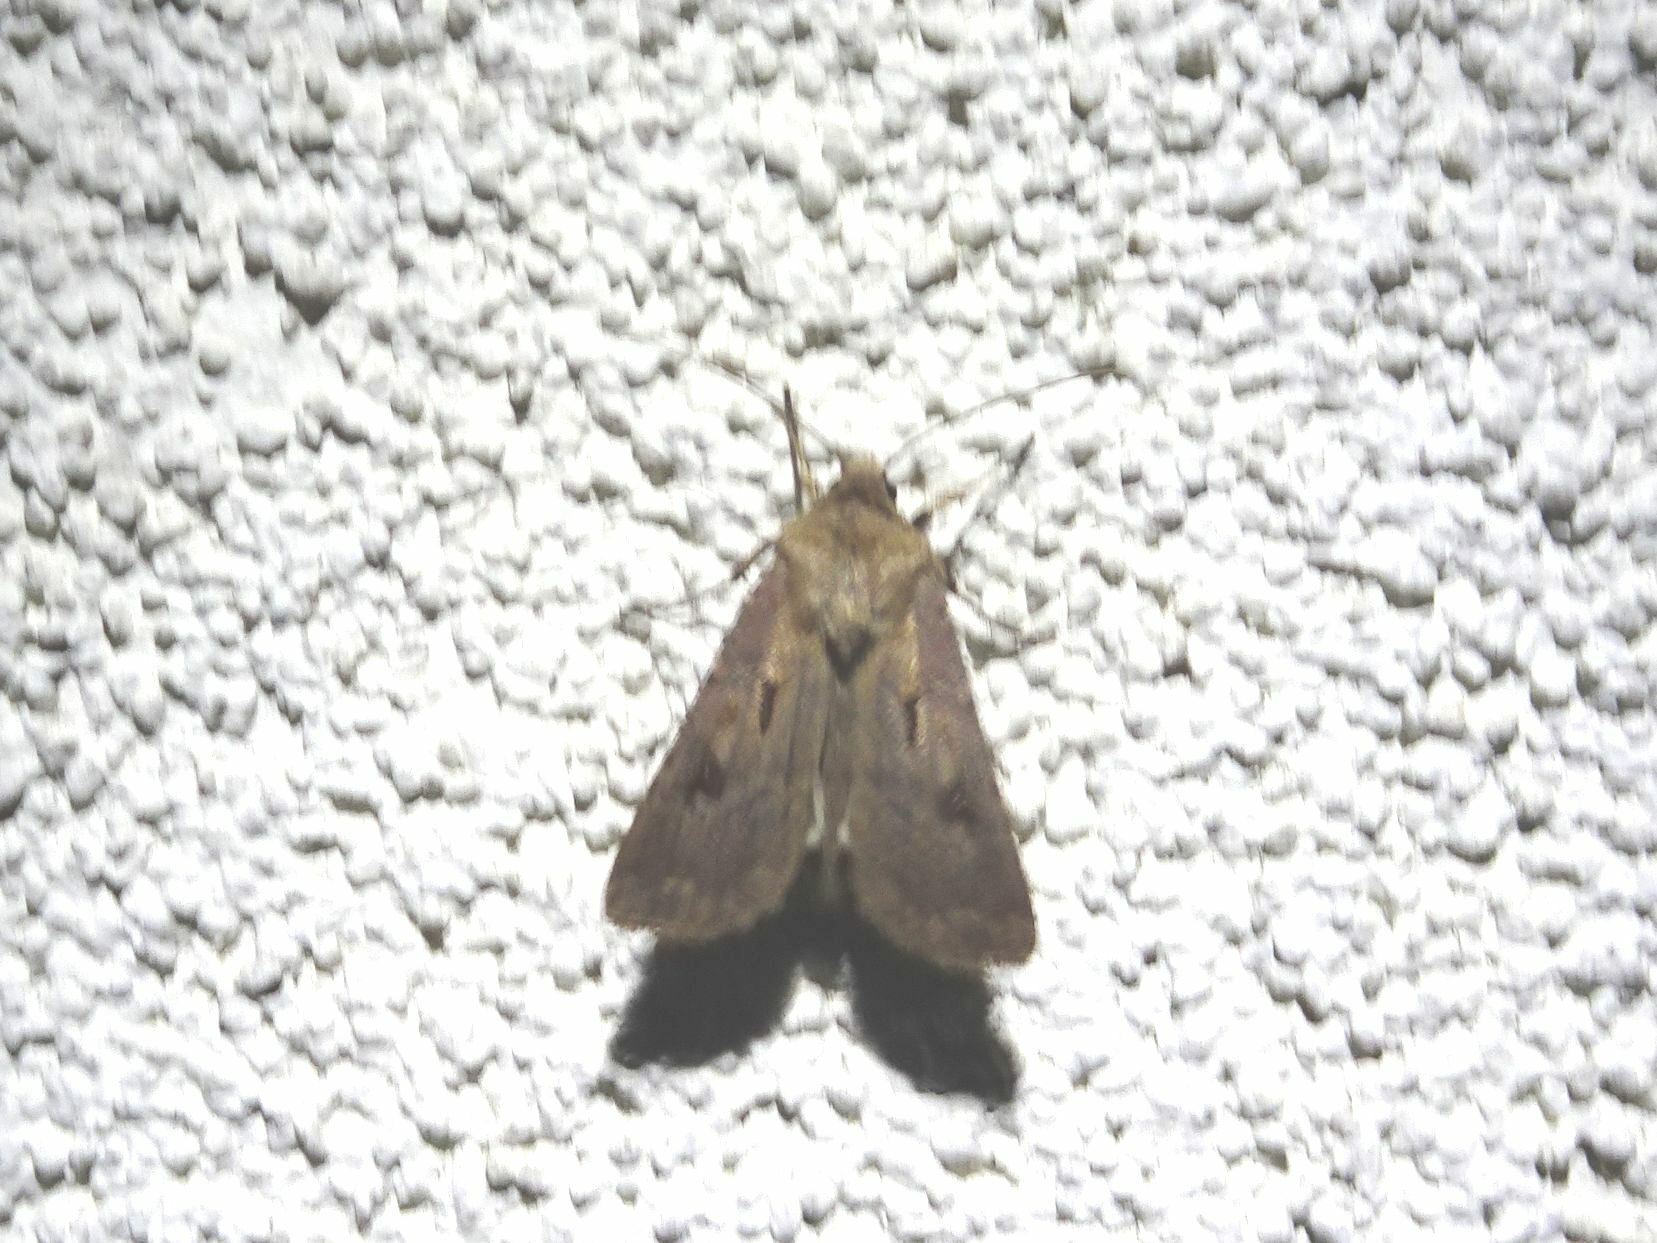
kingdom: Animalia
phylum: Arthropoda
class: Insecta
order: Lepidoptera
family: Noctuidae
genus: Agrotis
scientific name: Agrotis exclamationis
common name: Heart and dart
